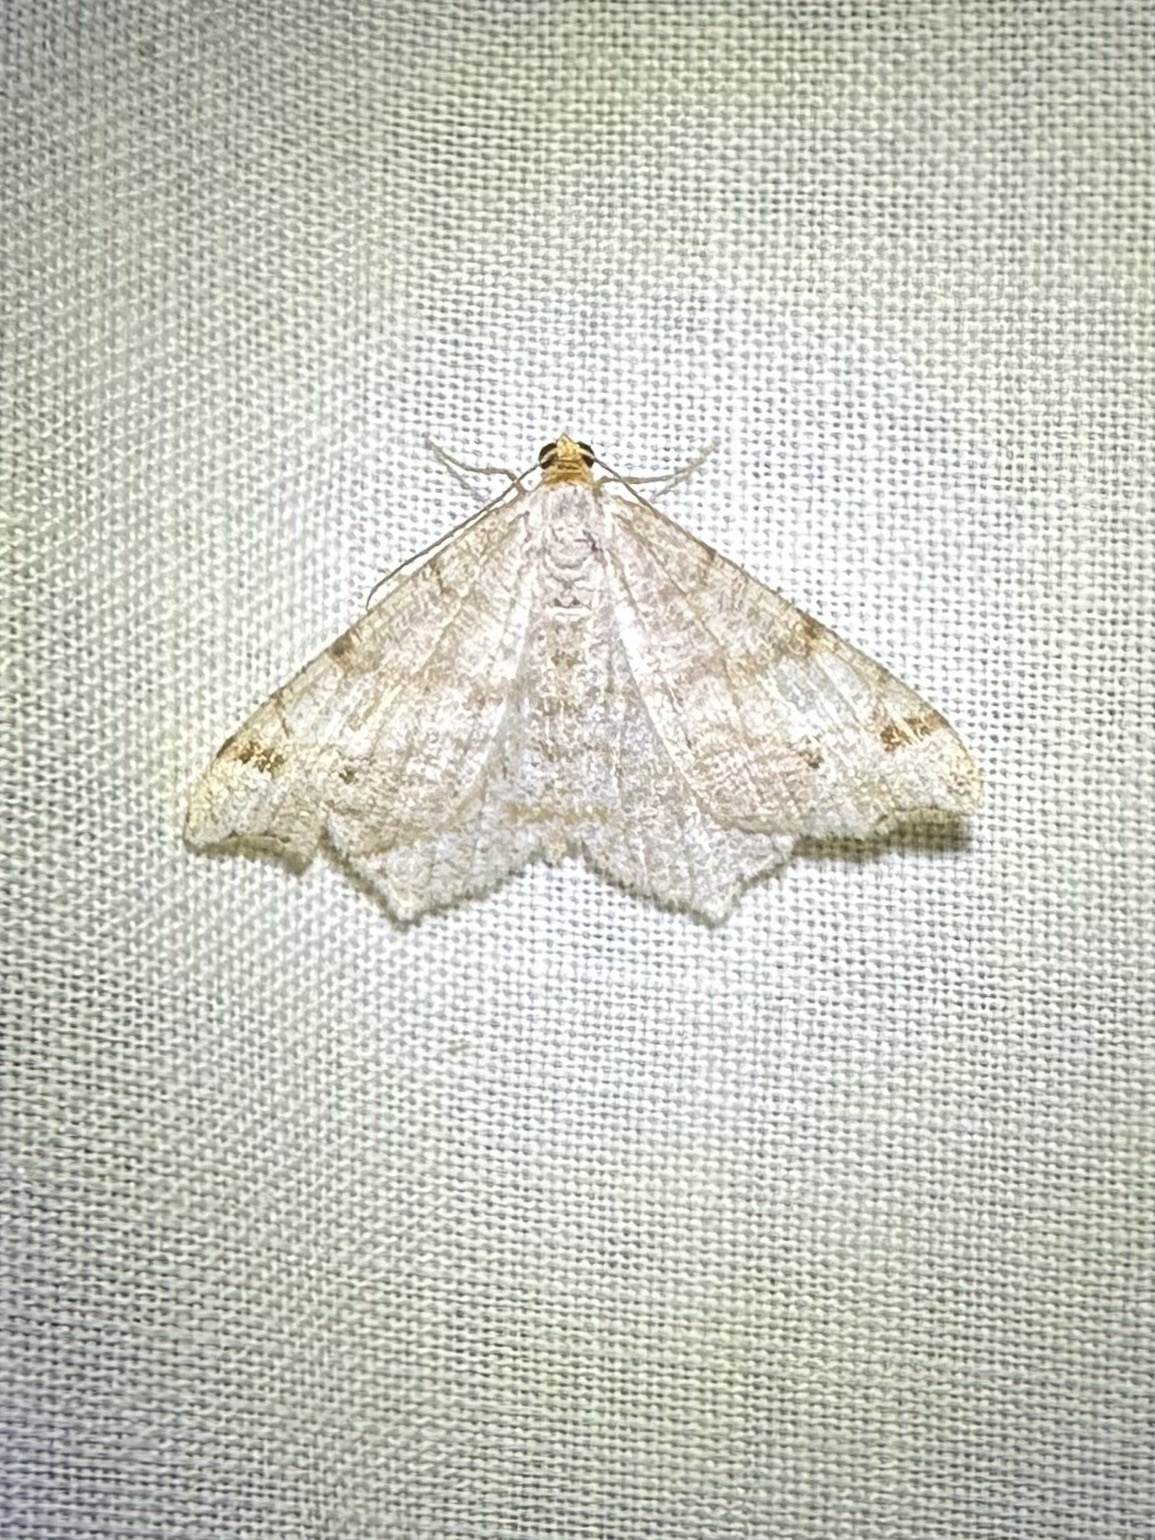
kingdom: Animalia
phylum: Arthropoda
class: Insecta
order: Lepidoptera
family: Geometridae
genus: Macaria
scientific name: Macaria bisignata
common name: Red-headed inchworm
